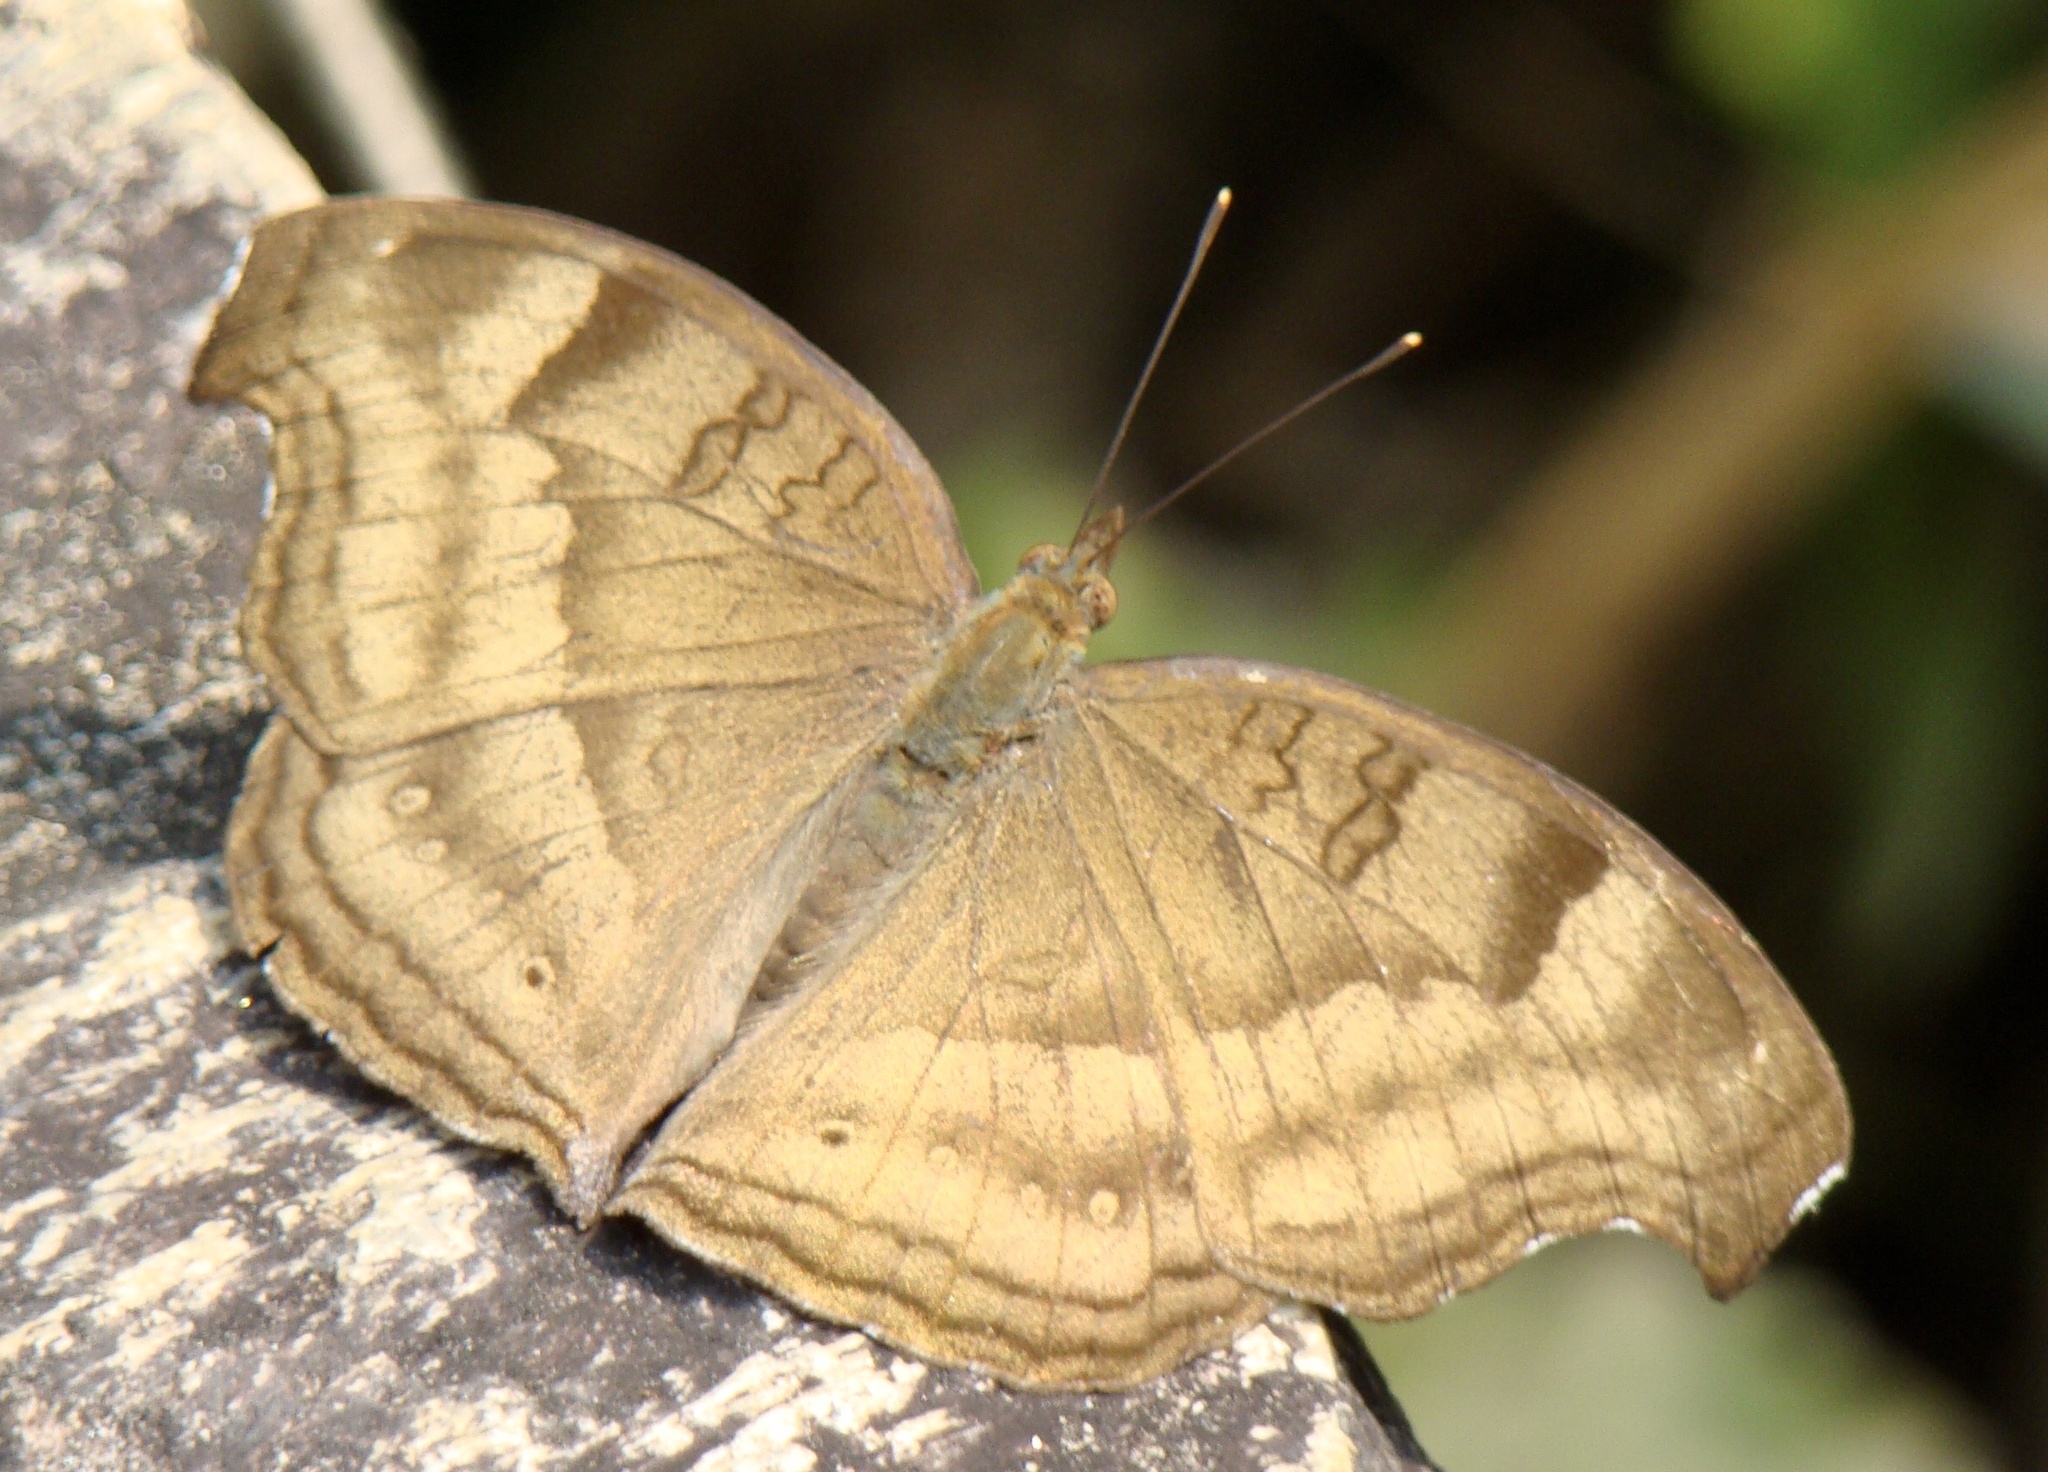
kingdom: Animalia
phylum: Arthropoda
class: Insecta
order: Lepidoptera
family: Nymphalidae
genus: Junonia
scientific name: Junonia iphita
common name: Chocolate pansy
